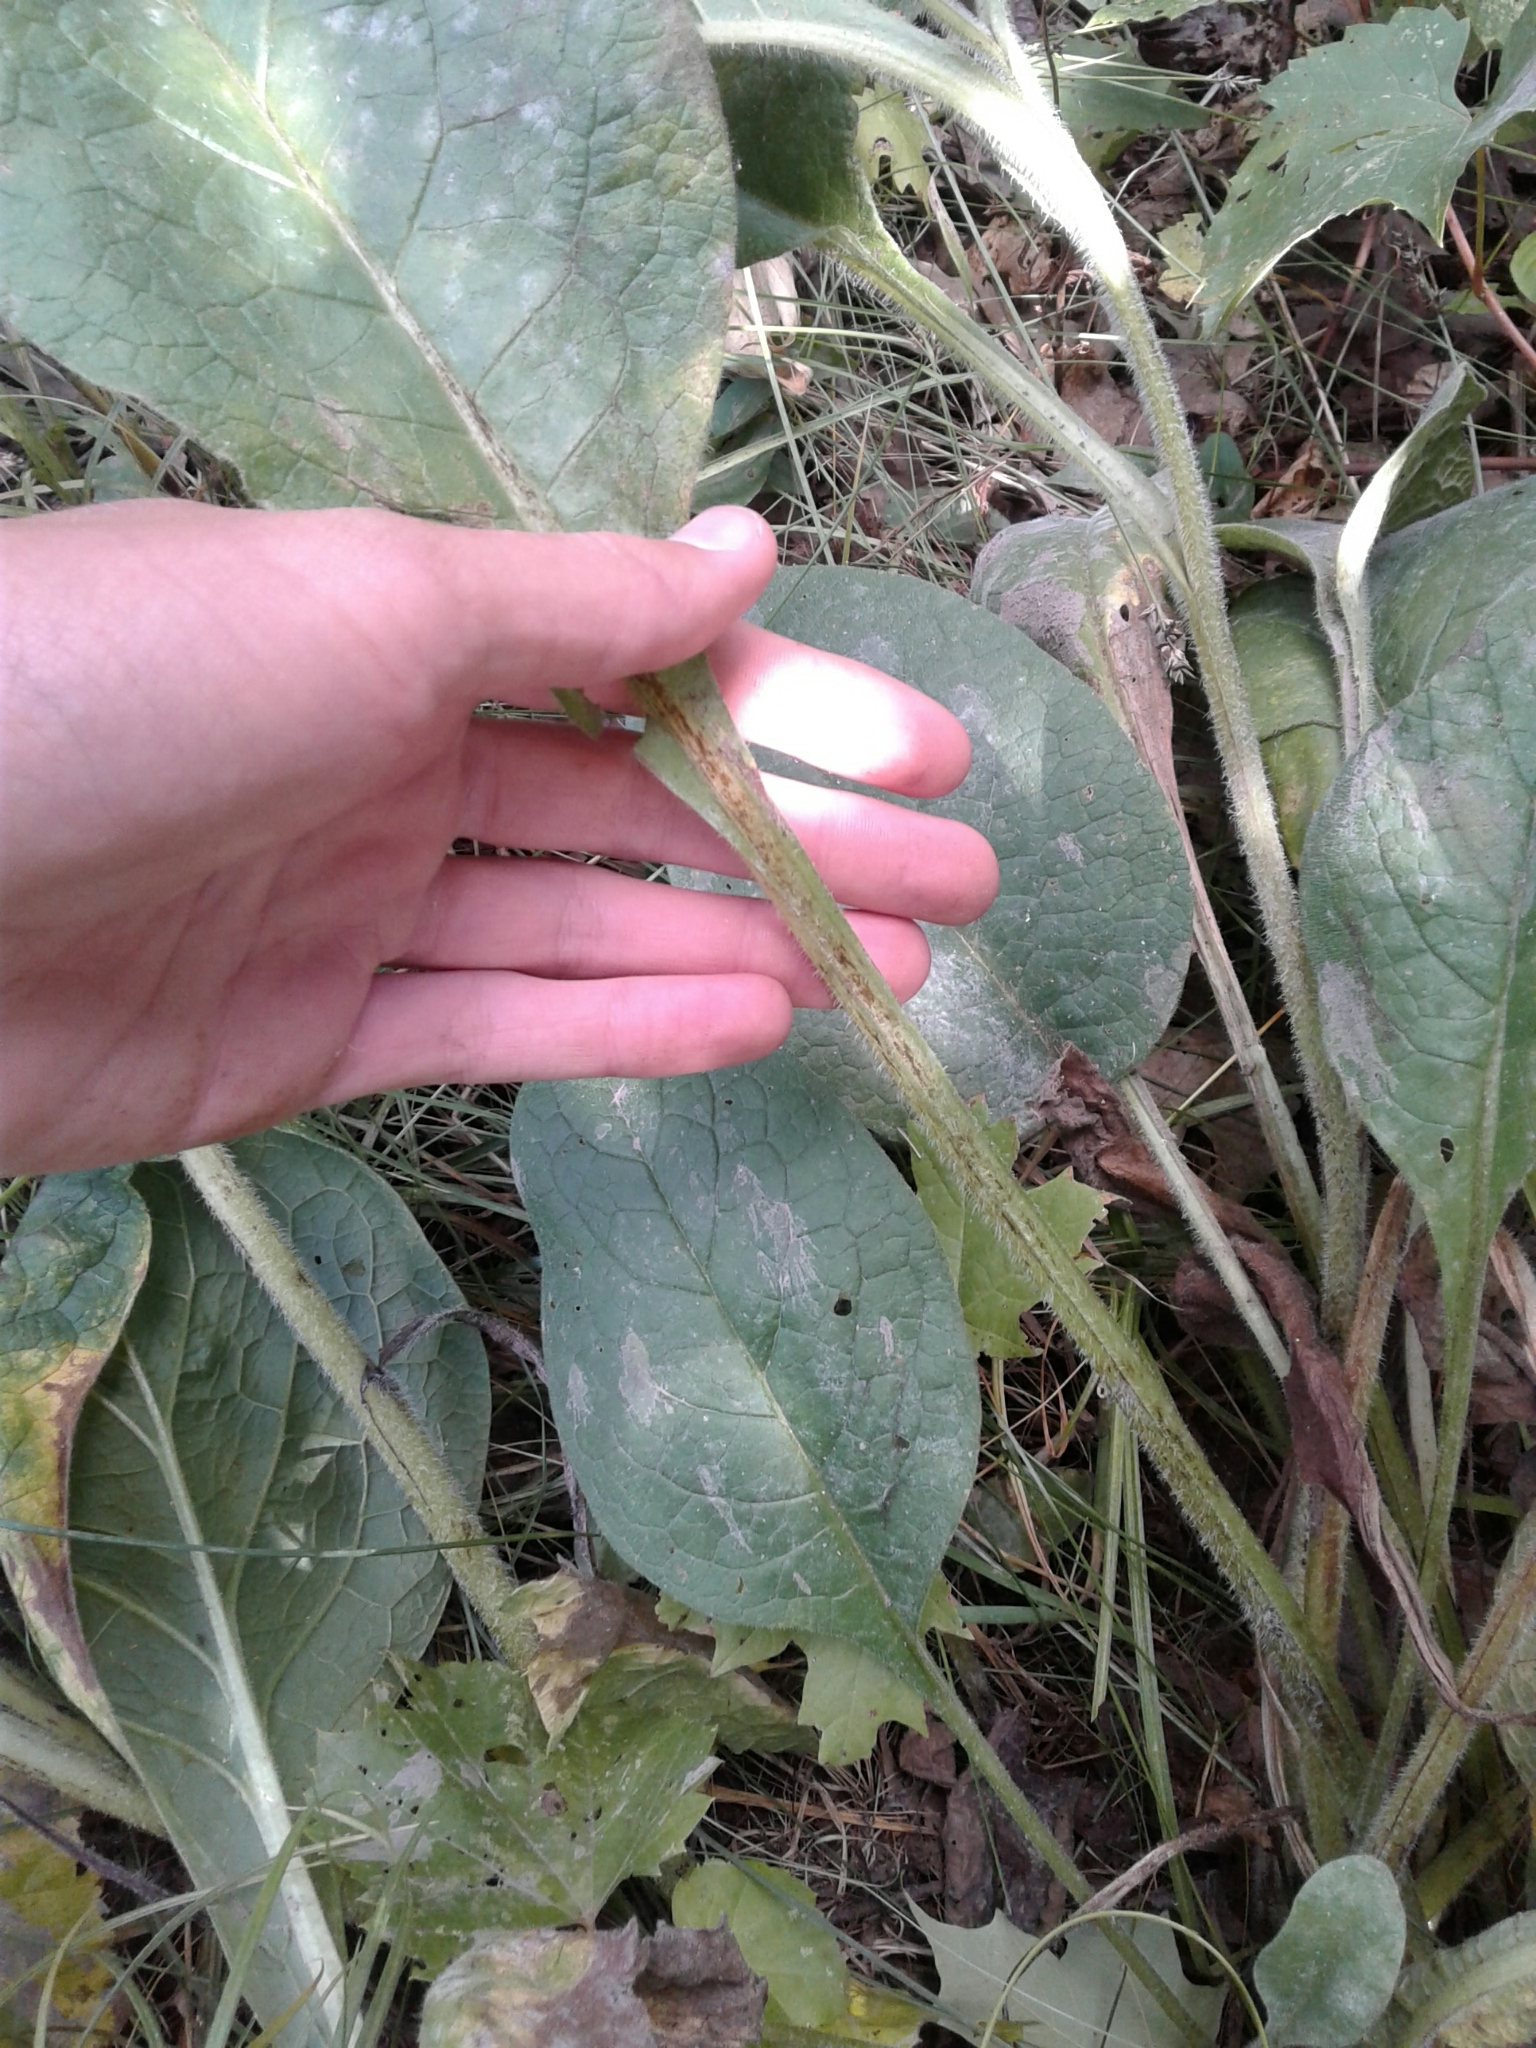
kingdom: Plantae
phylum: Tracheophyta
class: Magnoliopsida
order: Boraginales
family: Boraginaceae
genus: Symphytum
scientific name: Symphytum officinale
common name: Common comfrey
